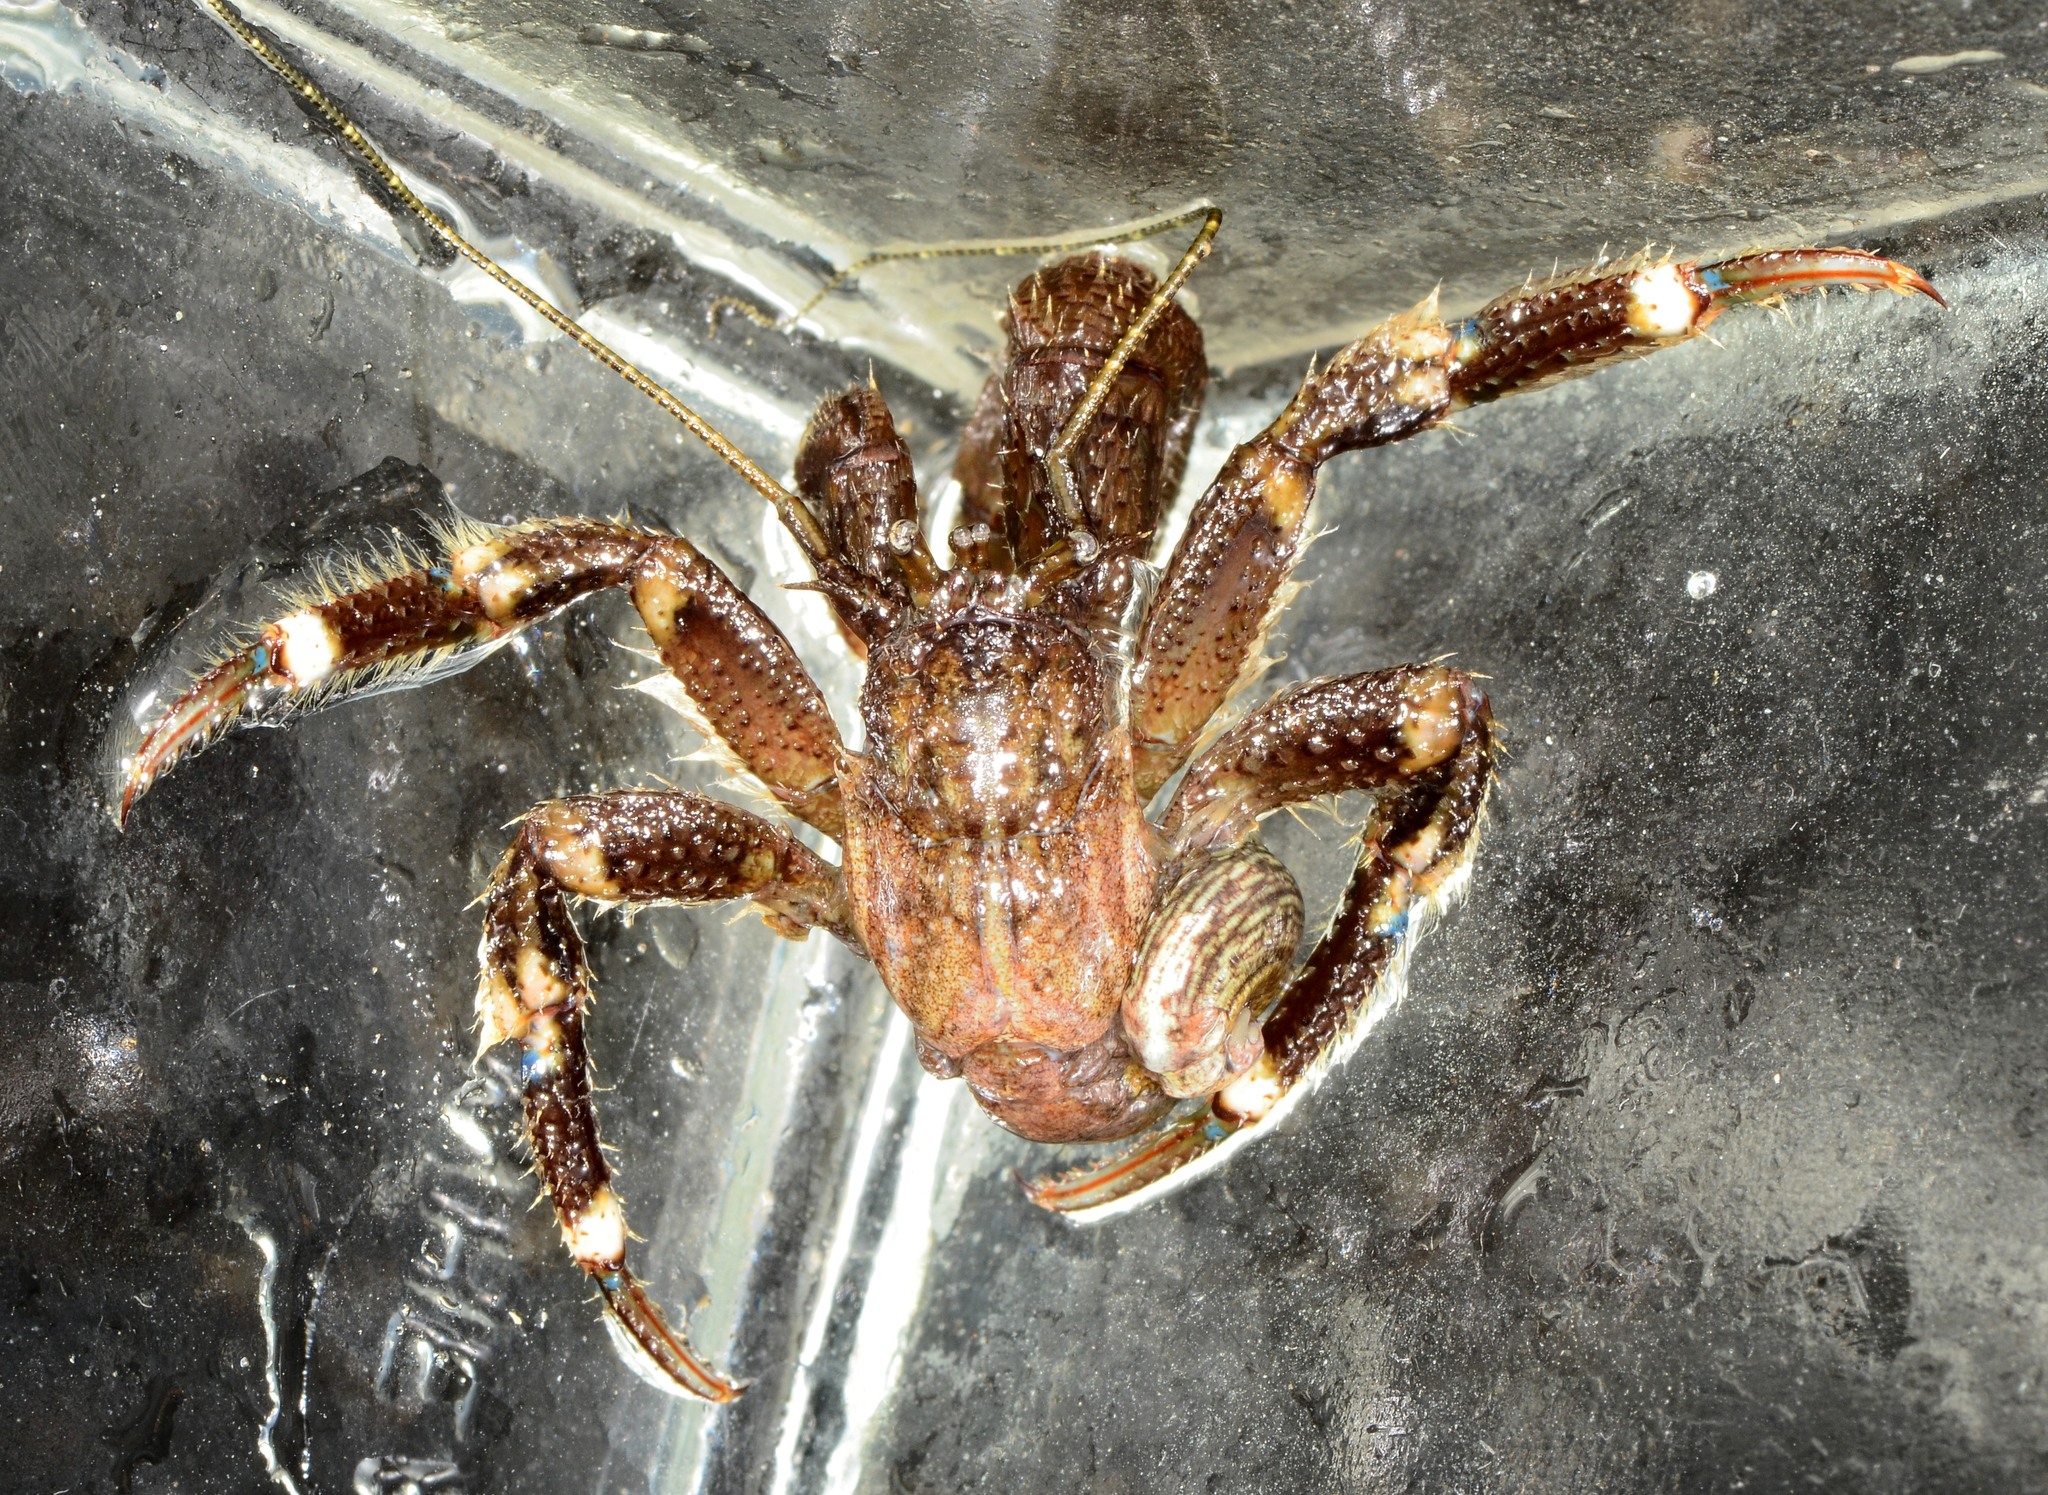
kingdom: Animalia
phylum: Arthropoda
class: Malacostraca
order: Decapoda
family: Paguridae
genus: Pagurus
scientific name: Pagurus hirsutiusculus
